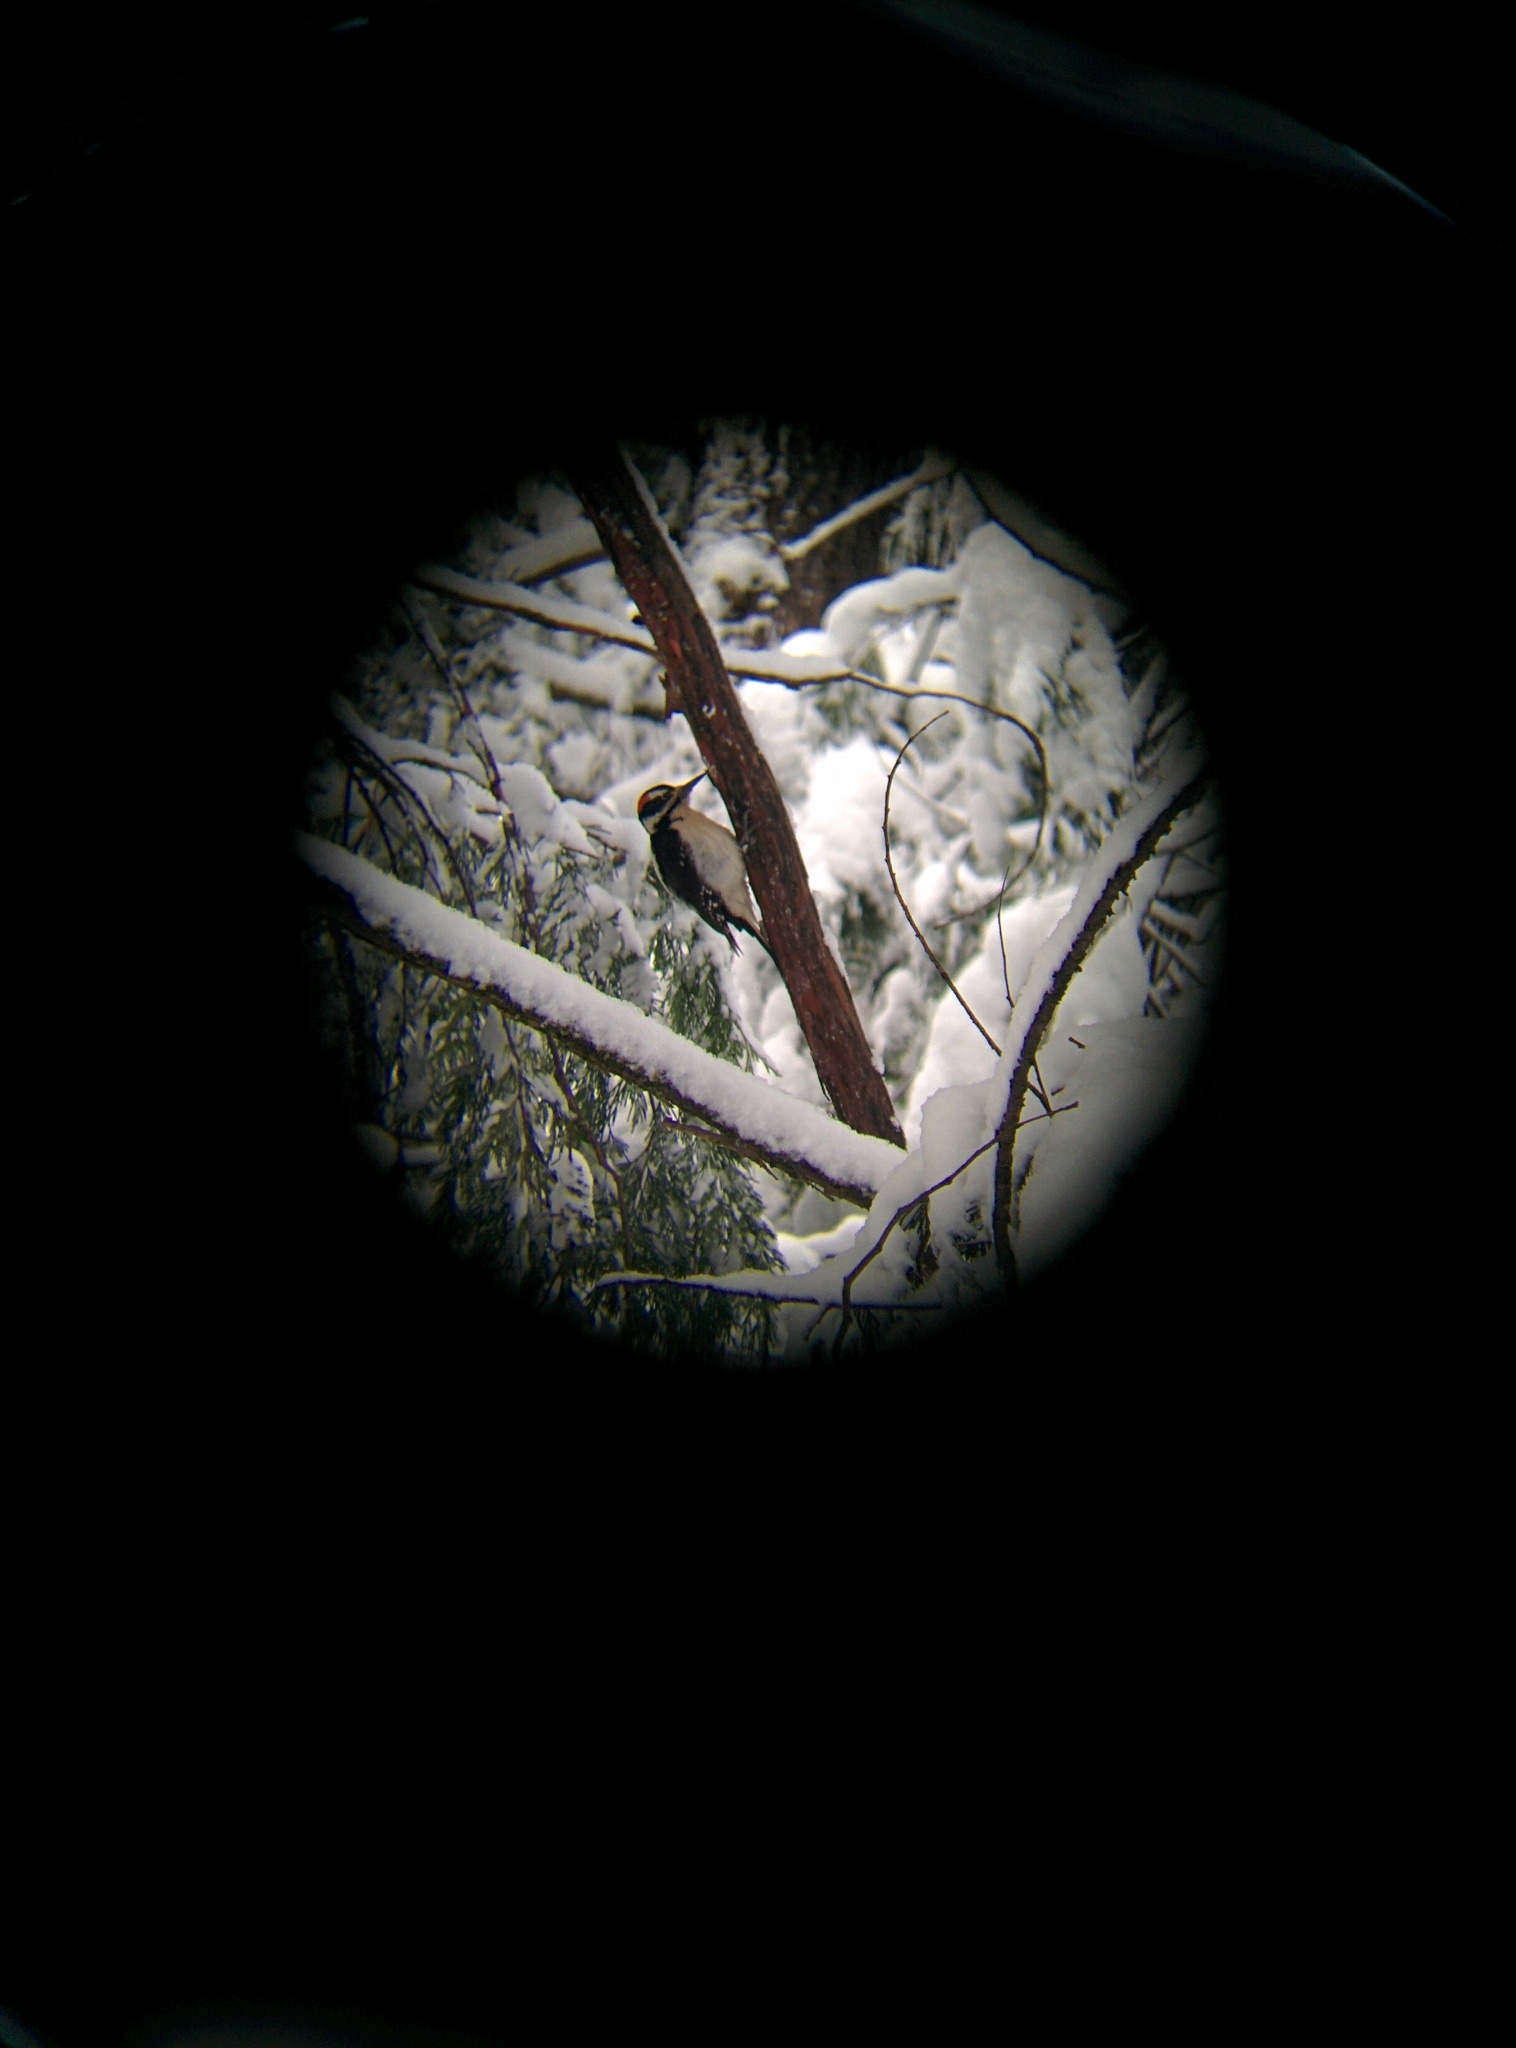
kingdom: Animalia
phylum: Chordata
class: Aves
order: Piciformes
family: Picidae
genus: Leuconotopicus
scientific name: Leuconotopicus villosus
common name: Hairy woodpecker
